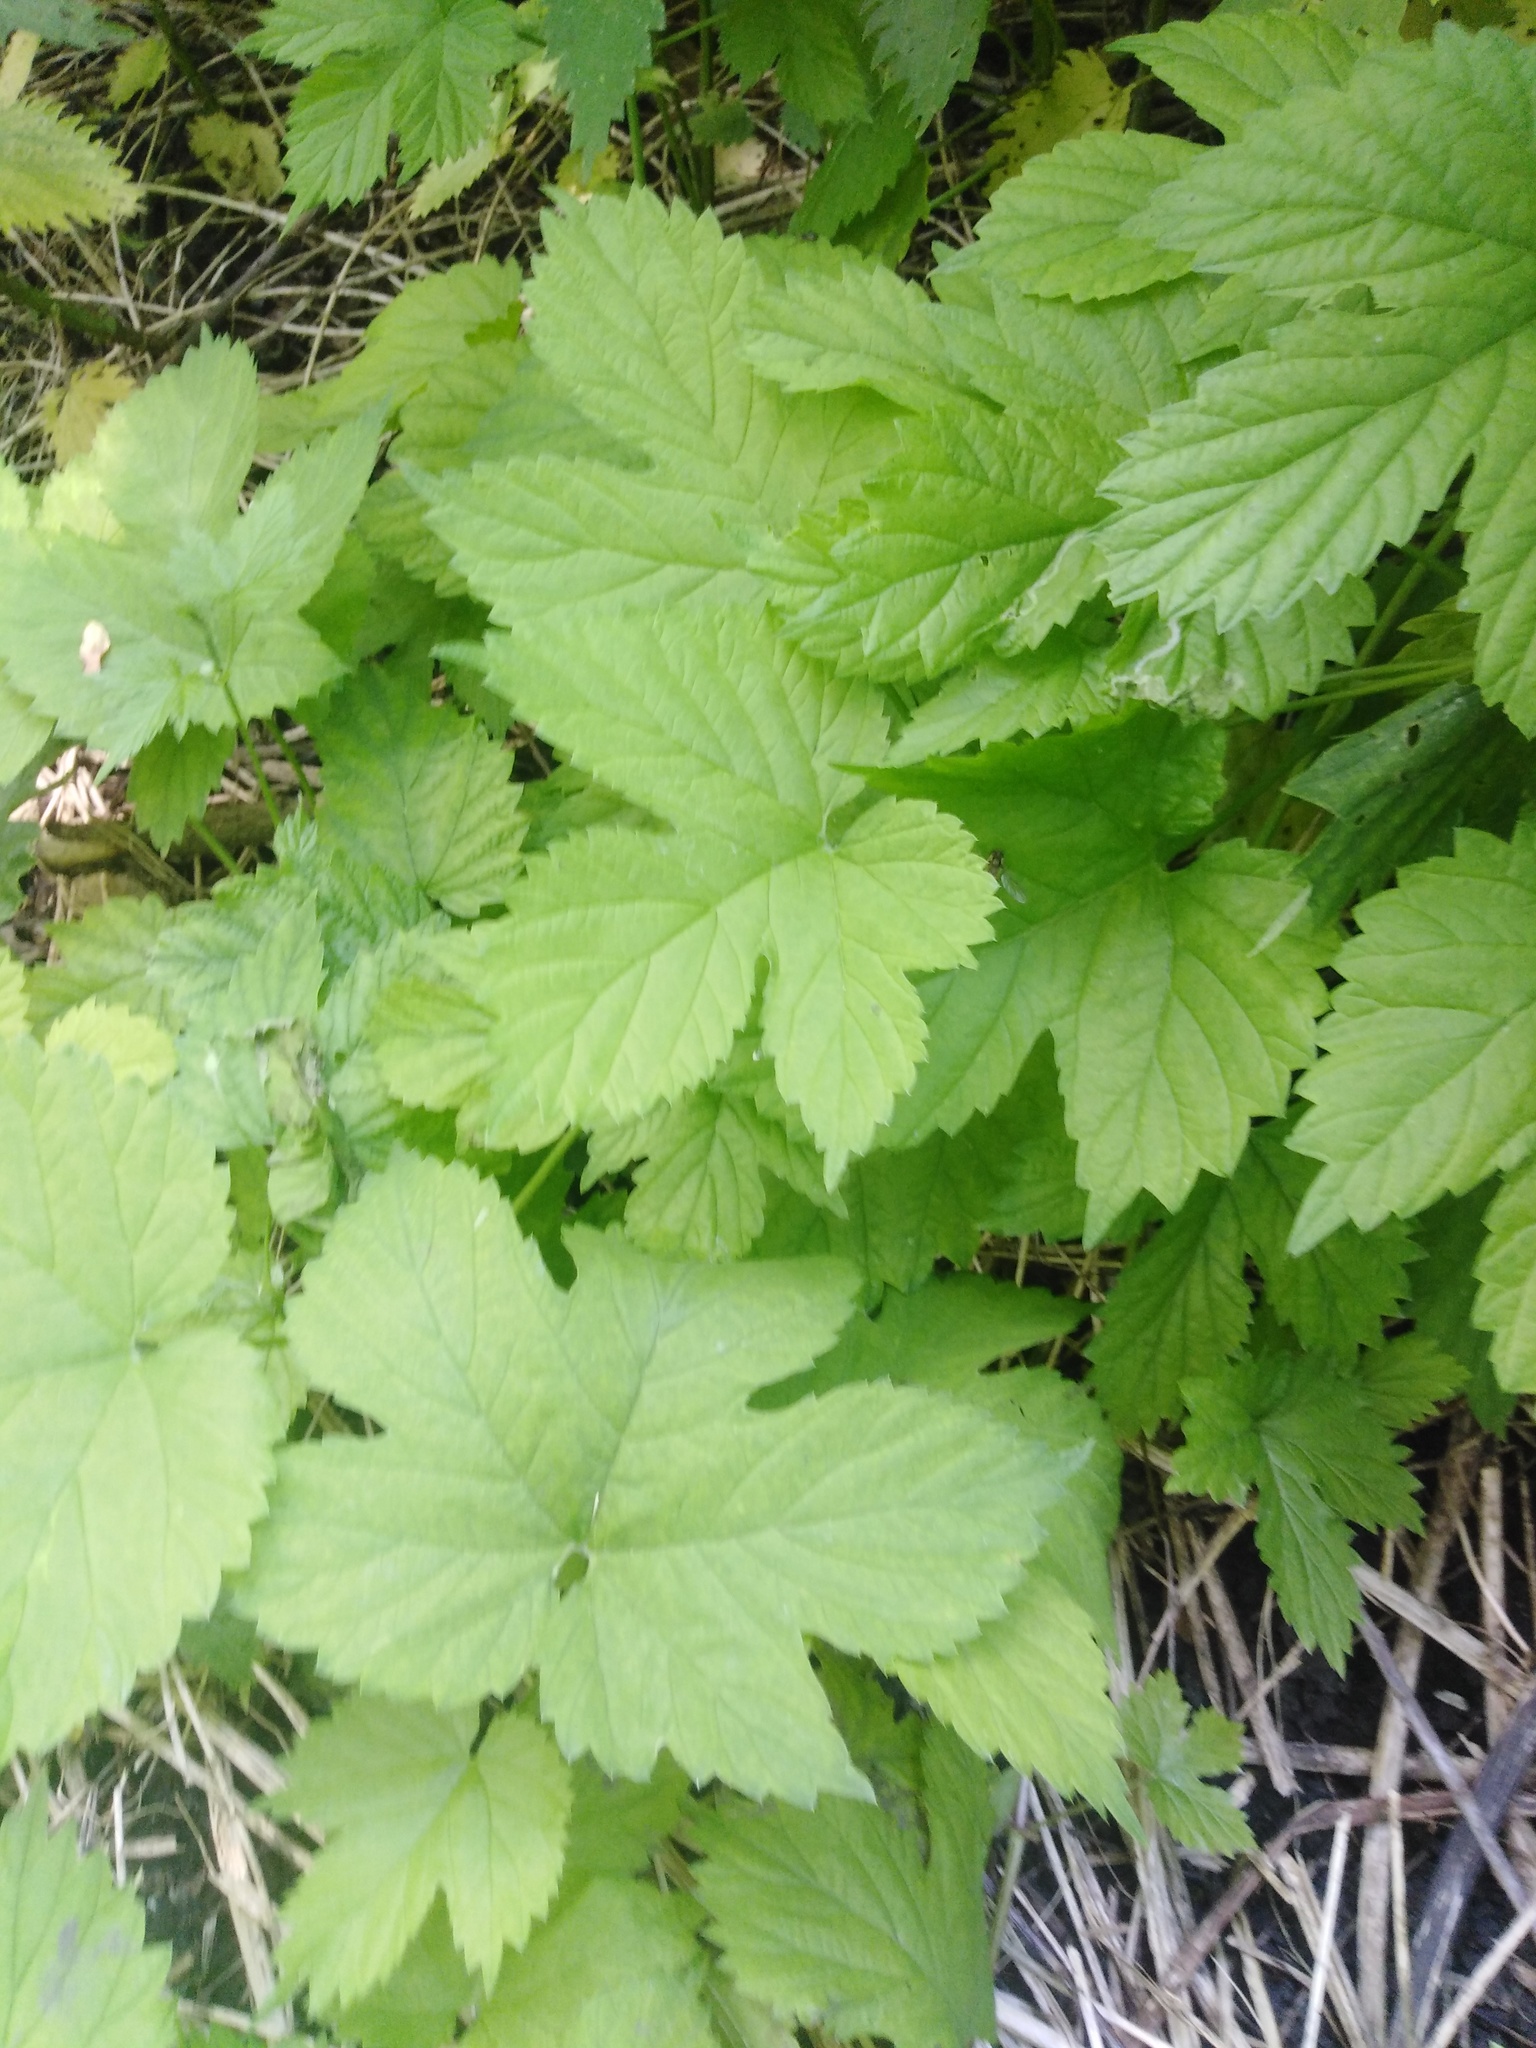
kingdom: Plantae
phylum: Tracheophyta
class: Magnoliopsida
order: Rosales
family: Cannabaceae
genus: Humulus
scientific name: Humulus lupulus
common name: Hop
